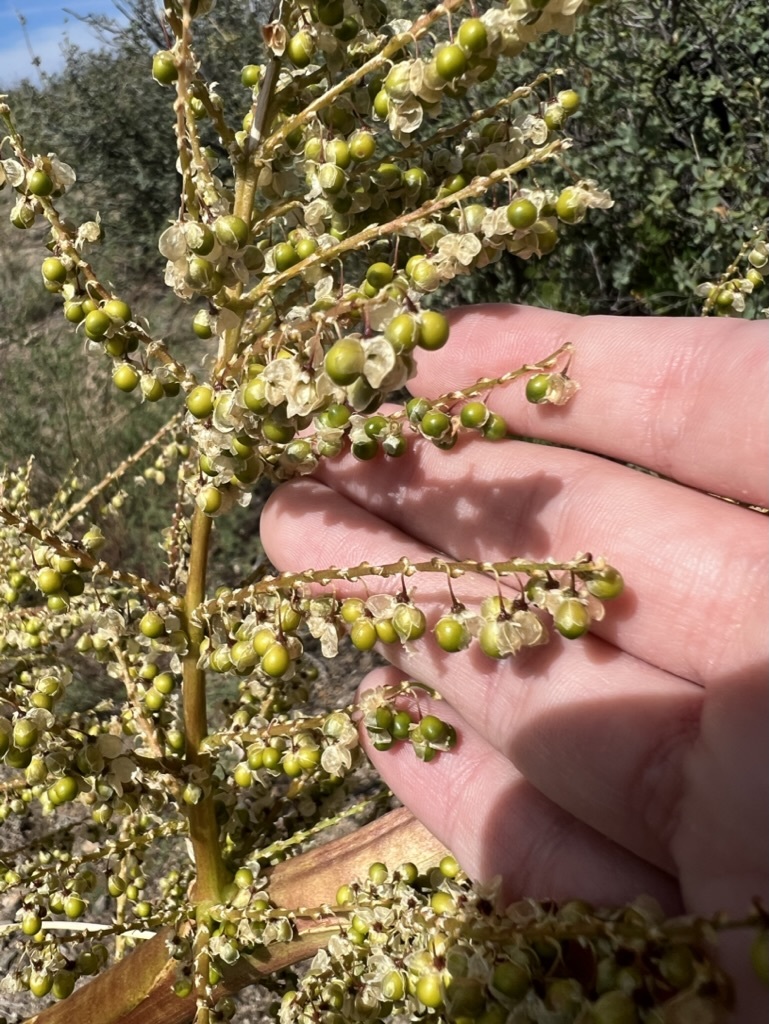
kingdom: Plantae
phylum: Tracheophyta
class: Liliopsida
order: Asparagales
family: Asparagaceae
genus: Nolina
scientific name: Nolina microcarpa
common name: Bear-grass
